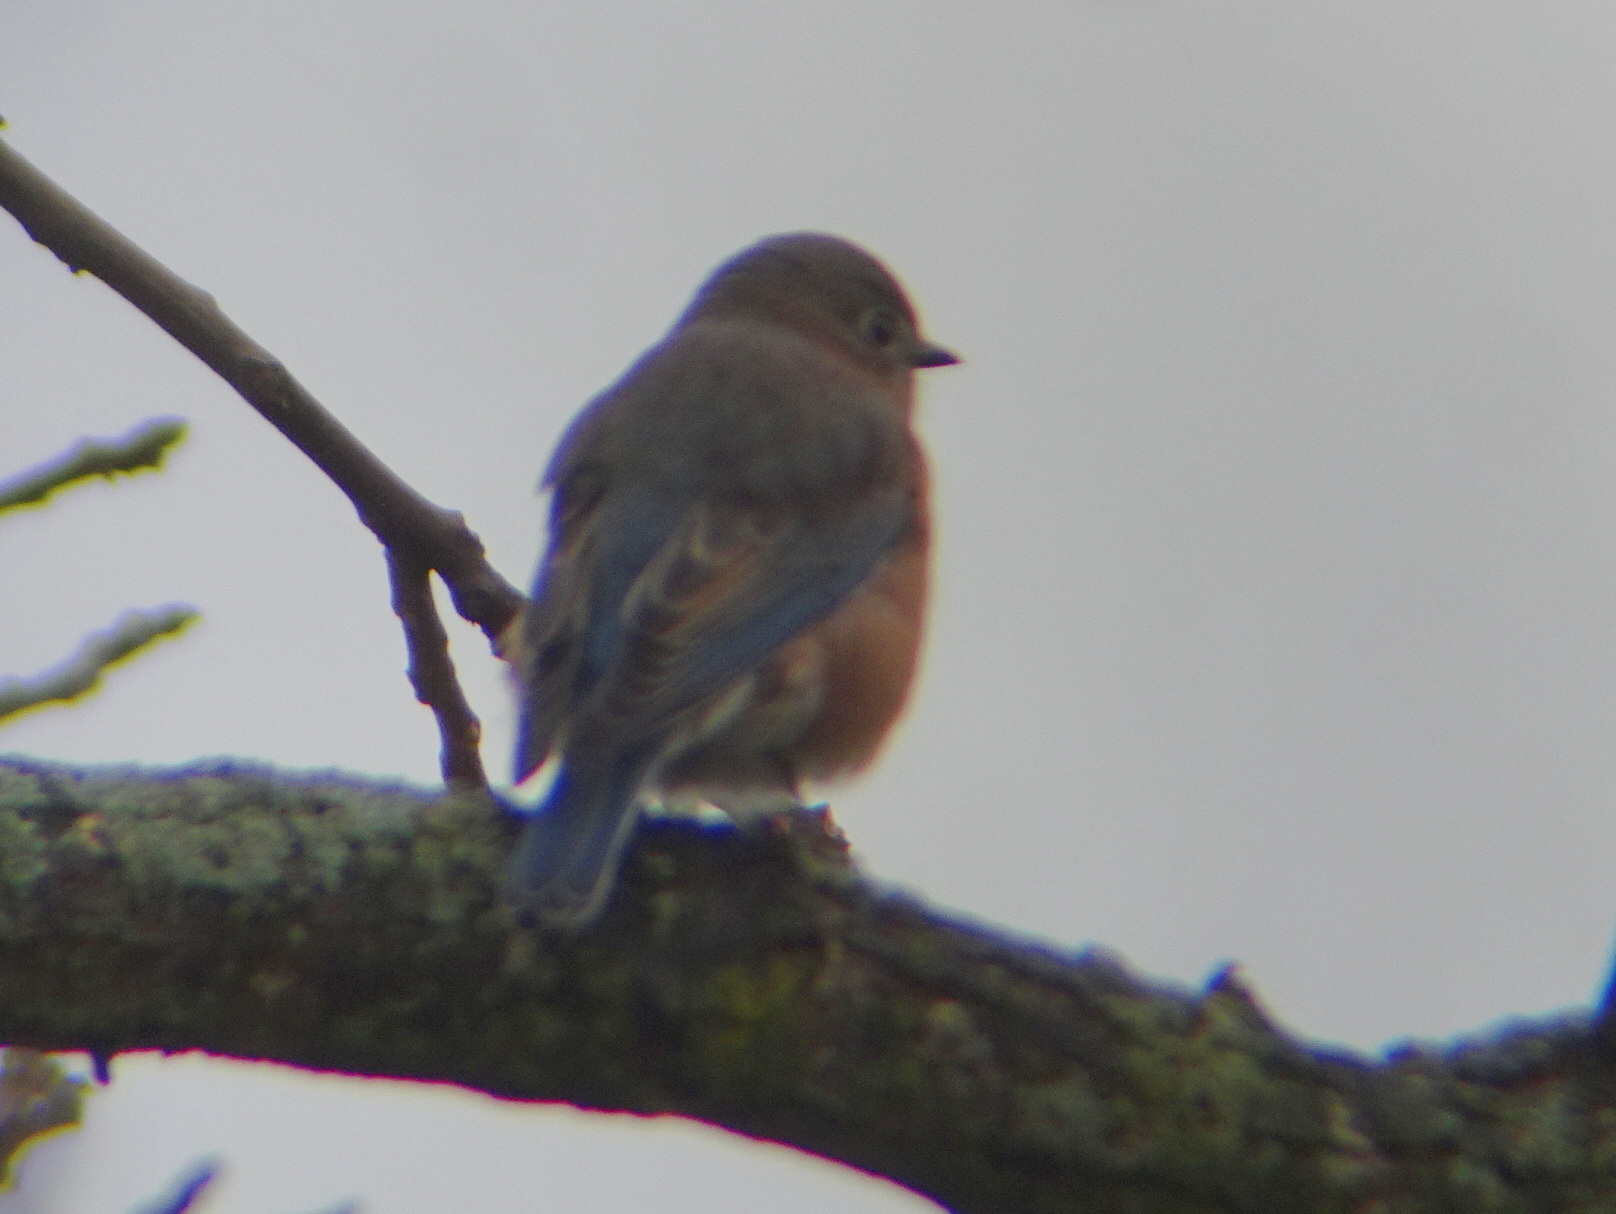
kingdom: Animalia
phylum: Chordata
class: Aves
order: Passeriformes
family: Turdidae
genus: Sialia
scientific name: Sialia sialis
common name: Eastern bluebird
